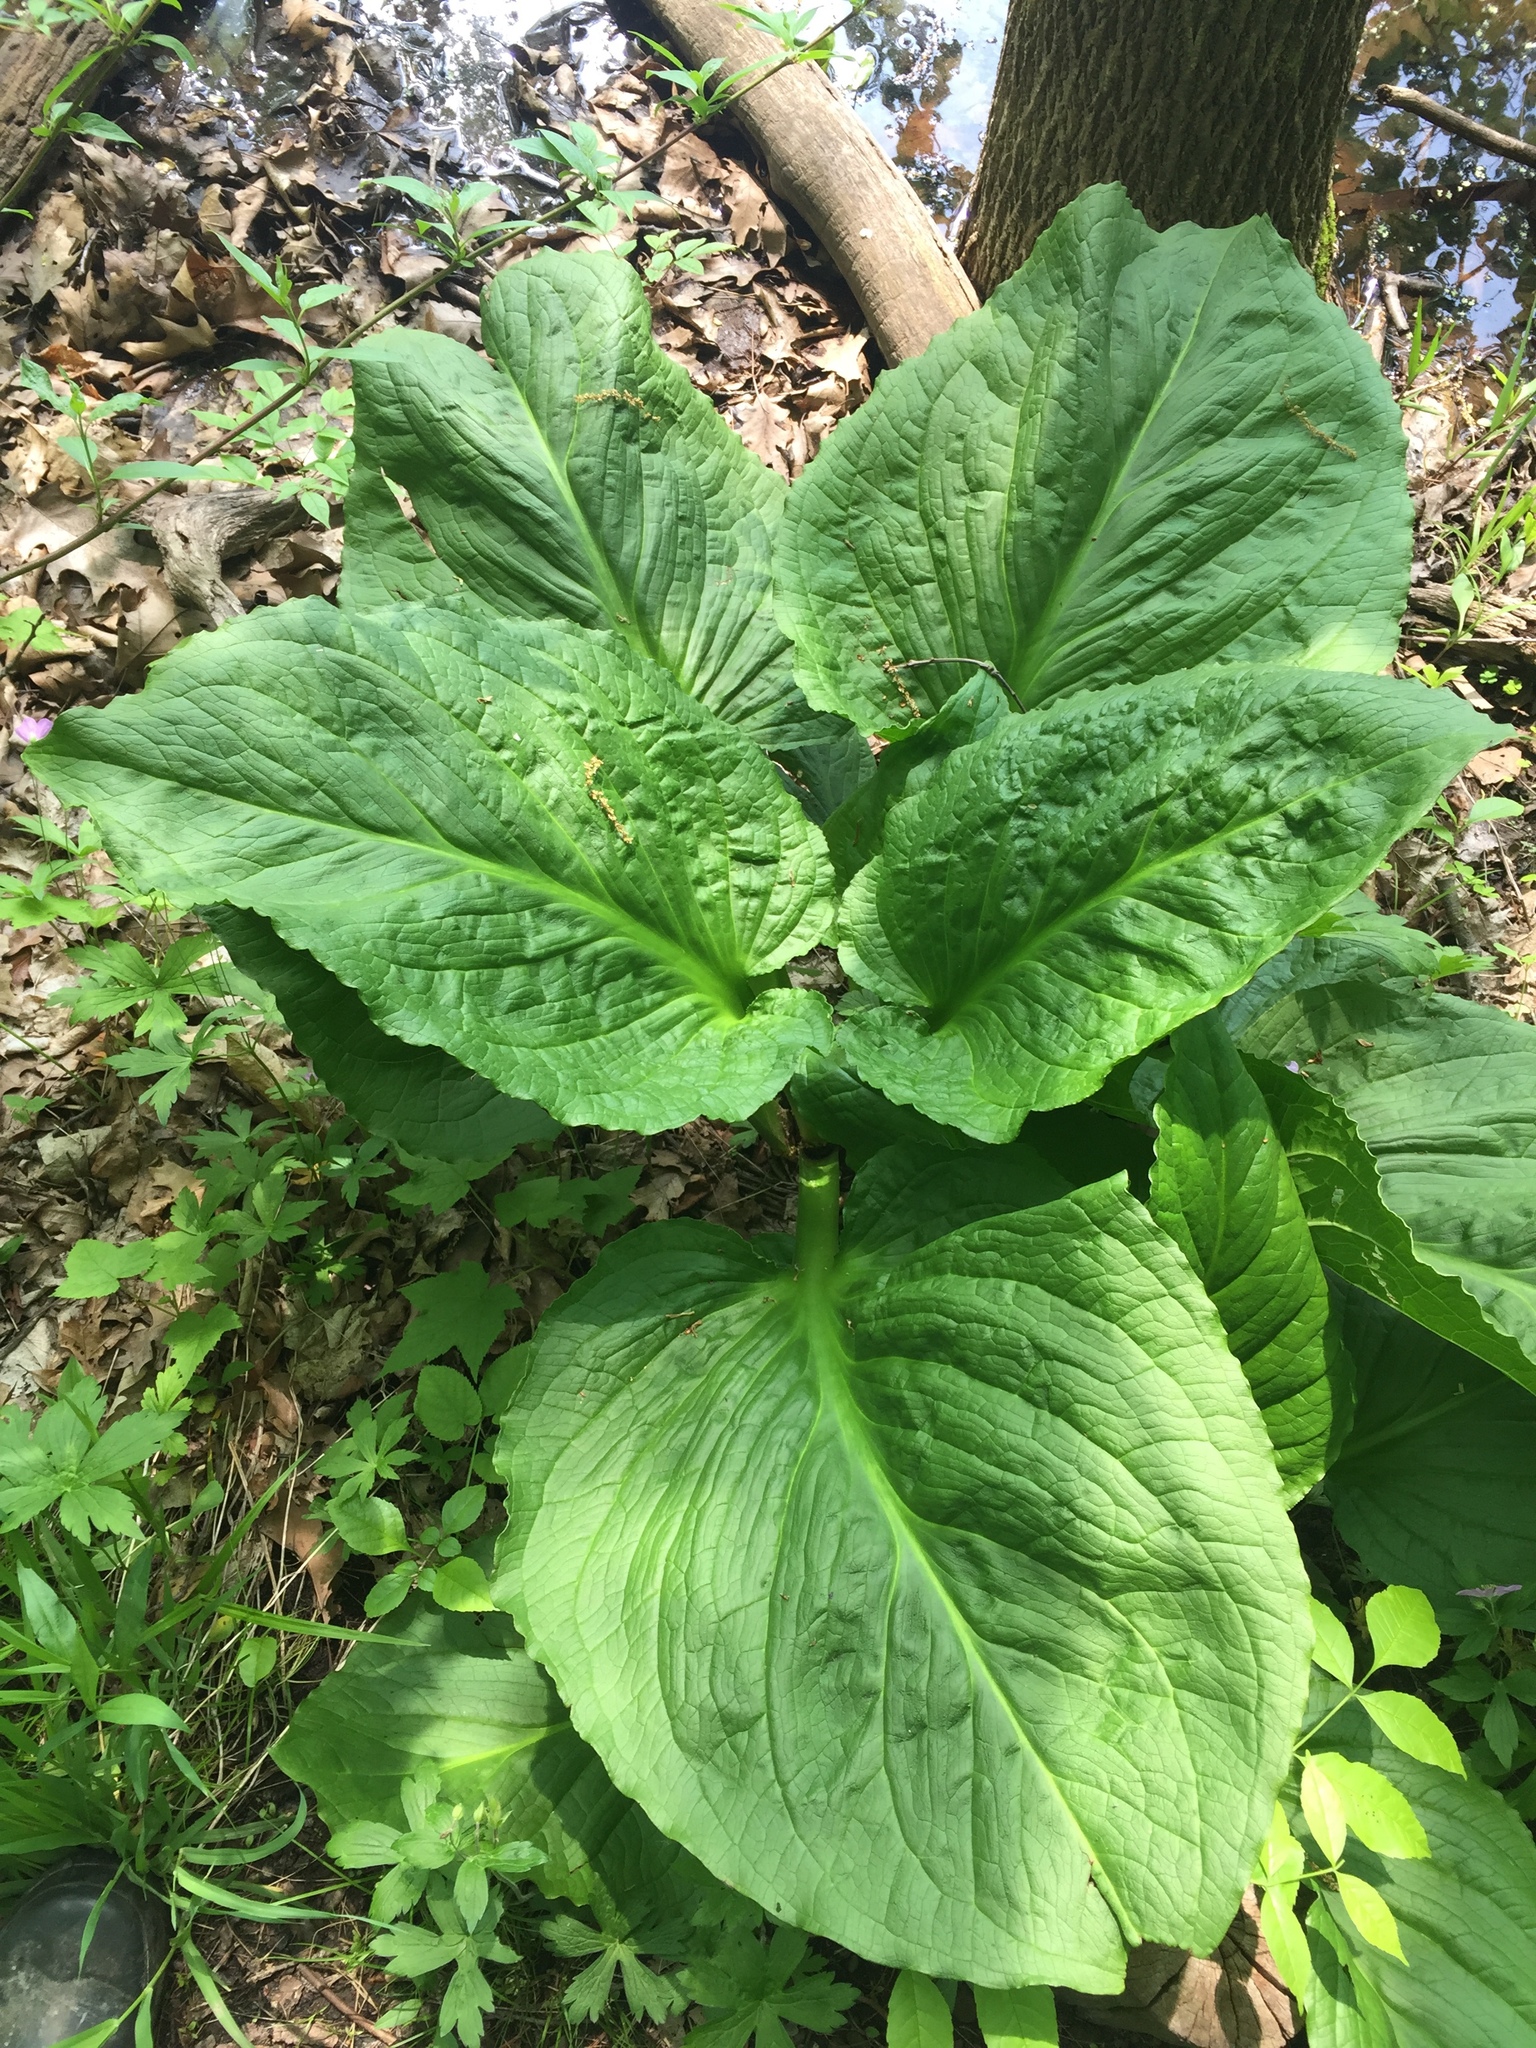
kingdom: Plantae
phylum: Tracheophyta
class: Liliopsida
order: Alismatales
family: Araceae
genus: Symplocarpus
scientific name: Symplocarpus foetidus
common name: Eastern skunk cabbage
